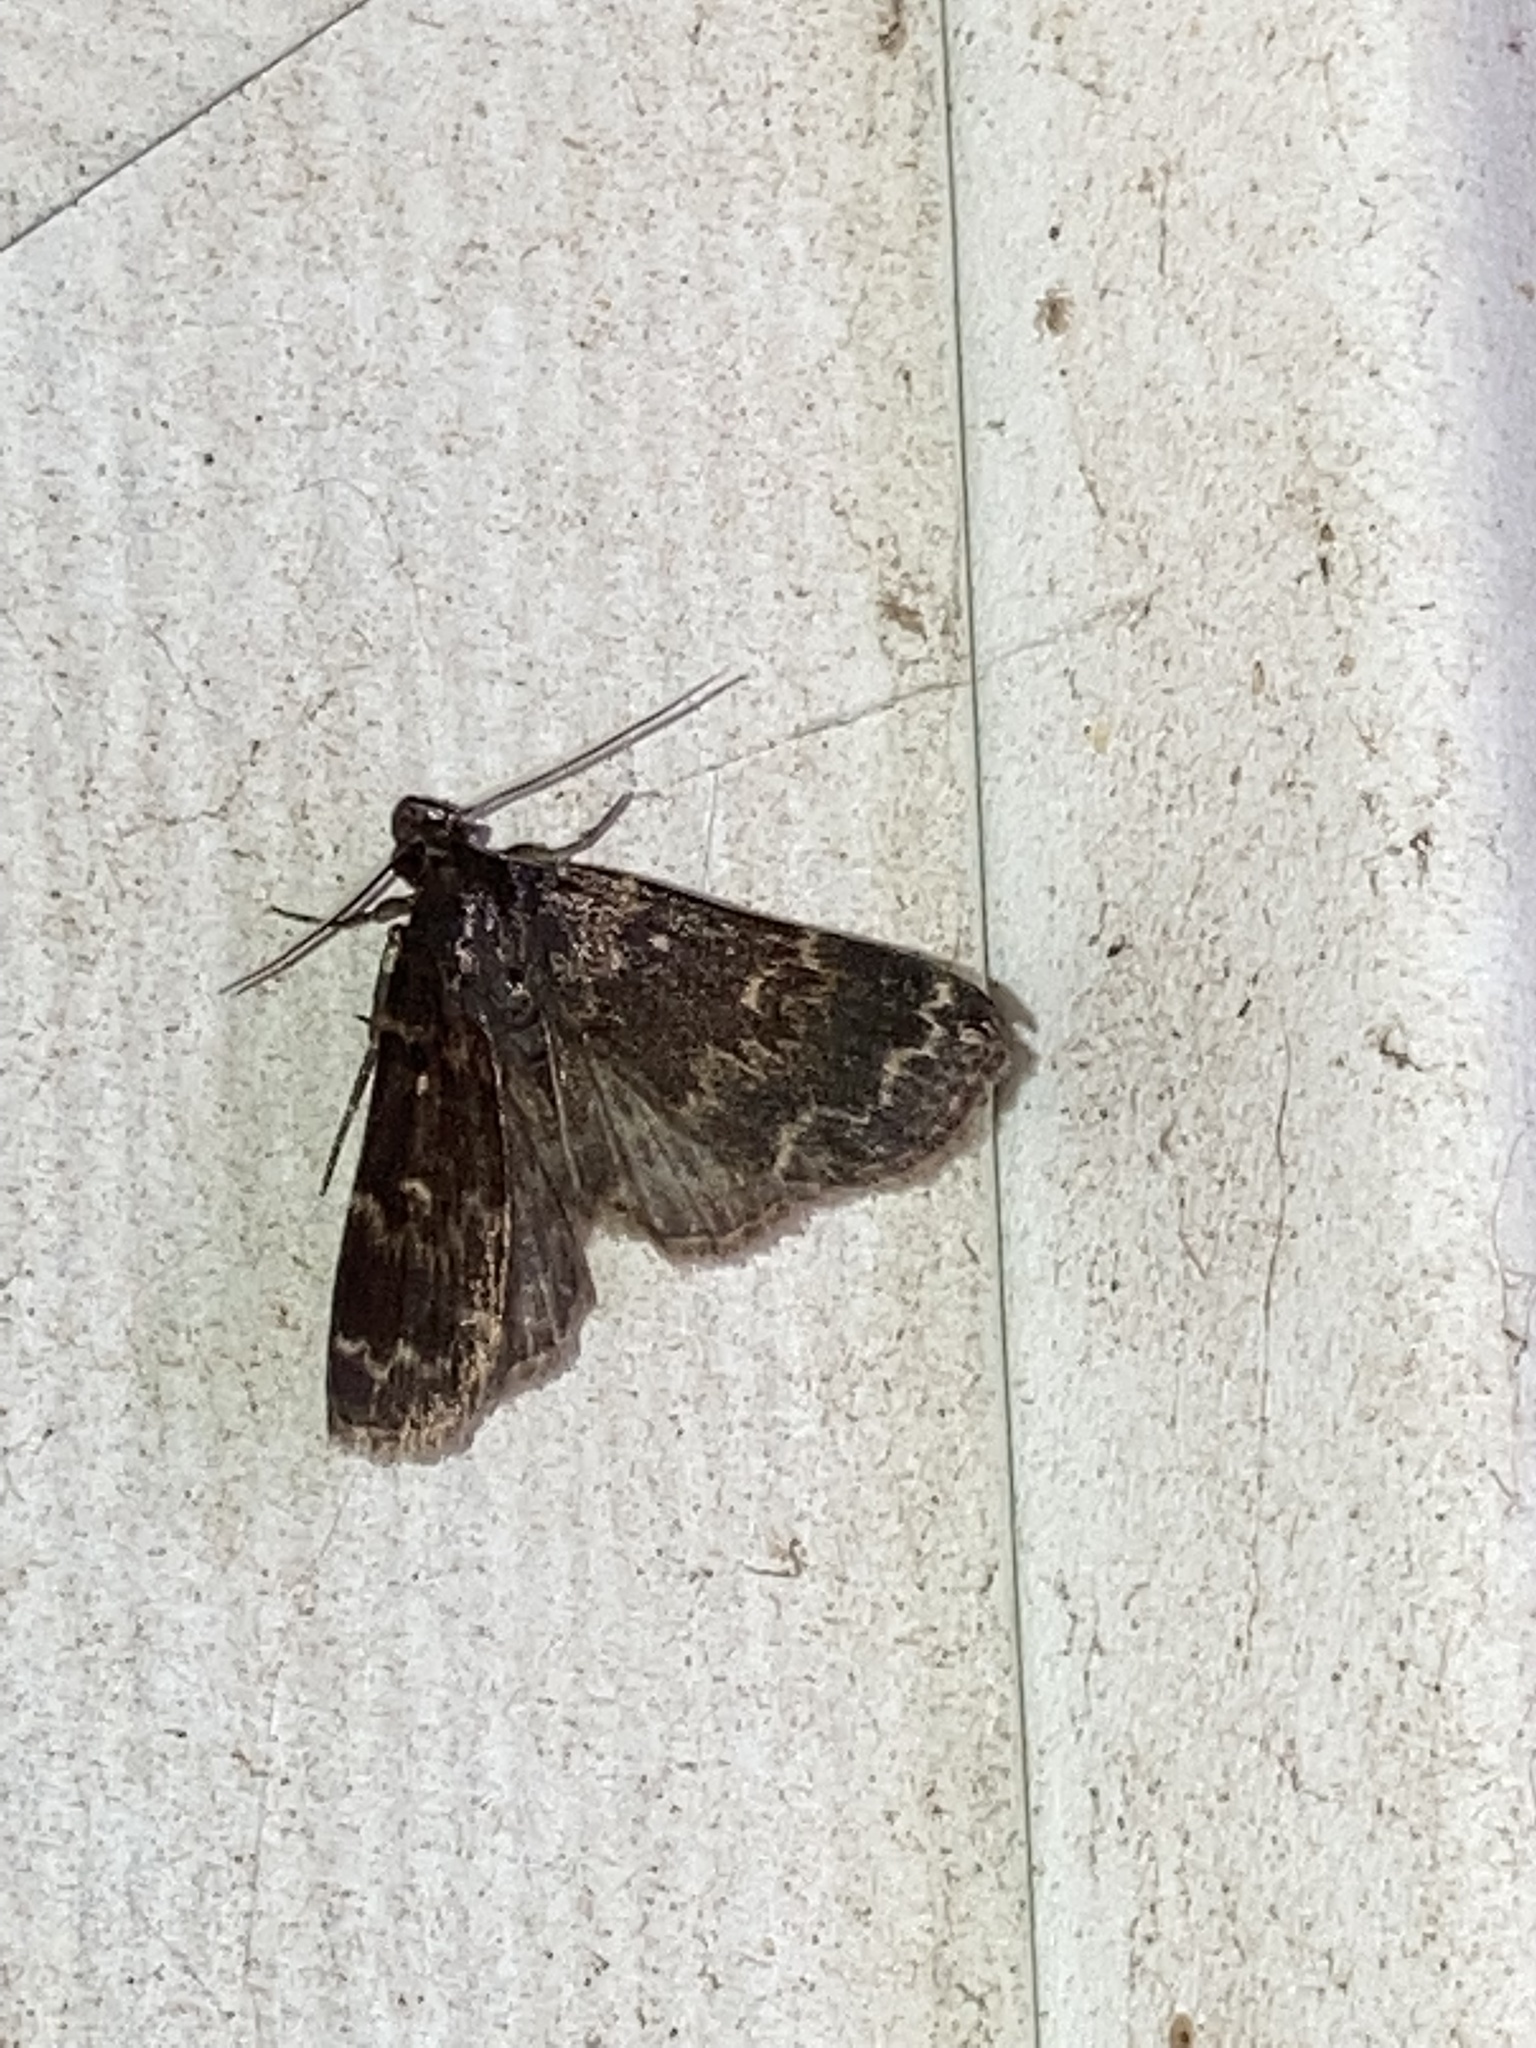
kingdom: Animalia
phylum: Arthropoda
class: Insecta
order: Lepidoptera
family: Erebidae
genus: Idia
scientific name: Idia lubricalis
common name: Twin-striped tabby
